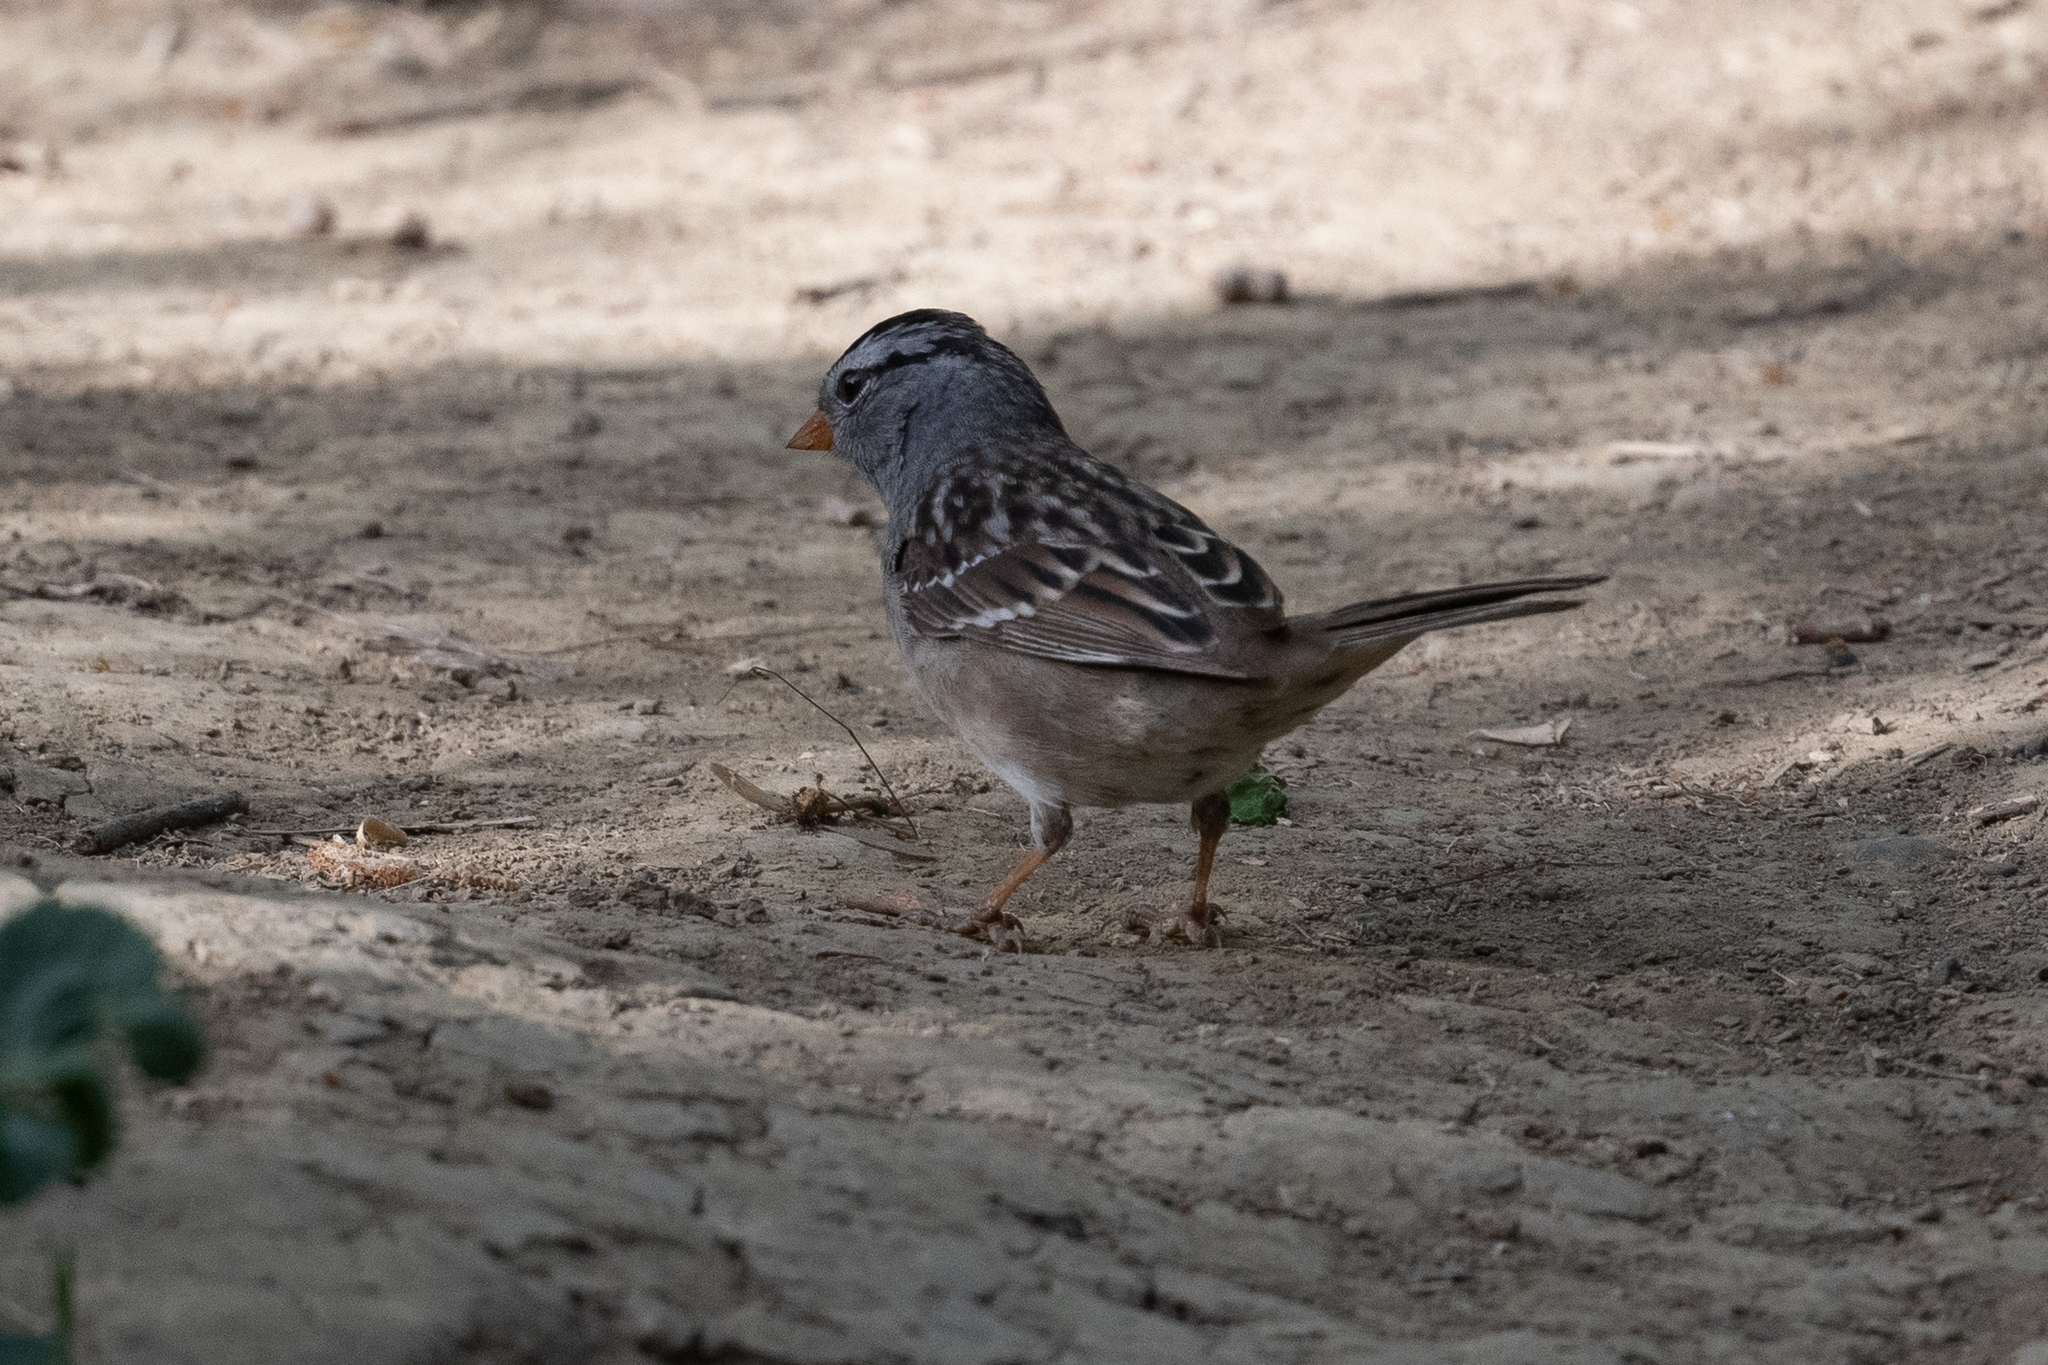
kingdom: Animalia
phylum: Chordata
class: Aves
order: Passeriformes
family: Passerellidae
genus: Zonotrichia
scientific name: Zonotrichia leucophrys
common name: White-crowned sparrow
